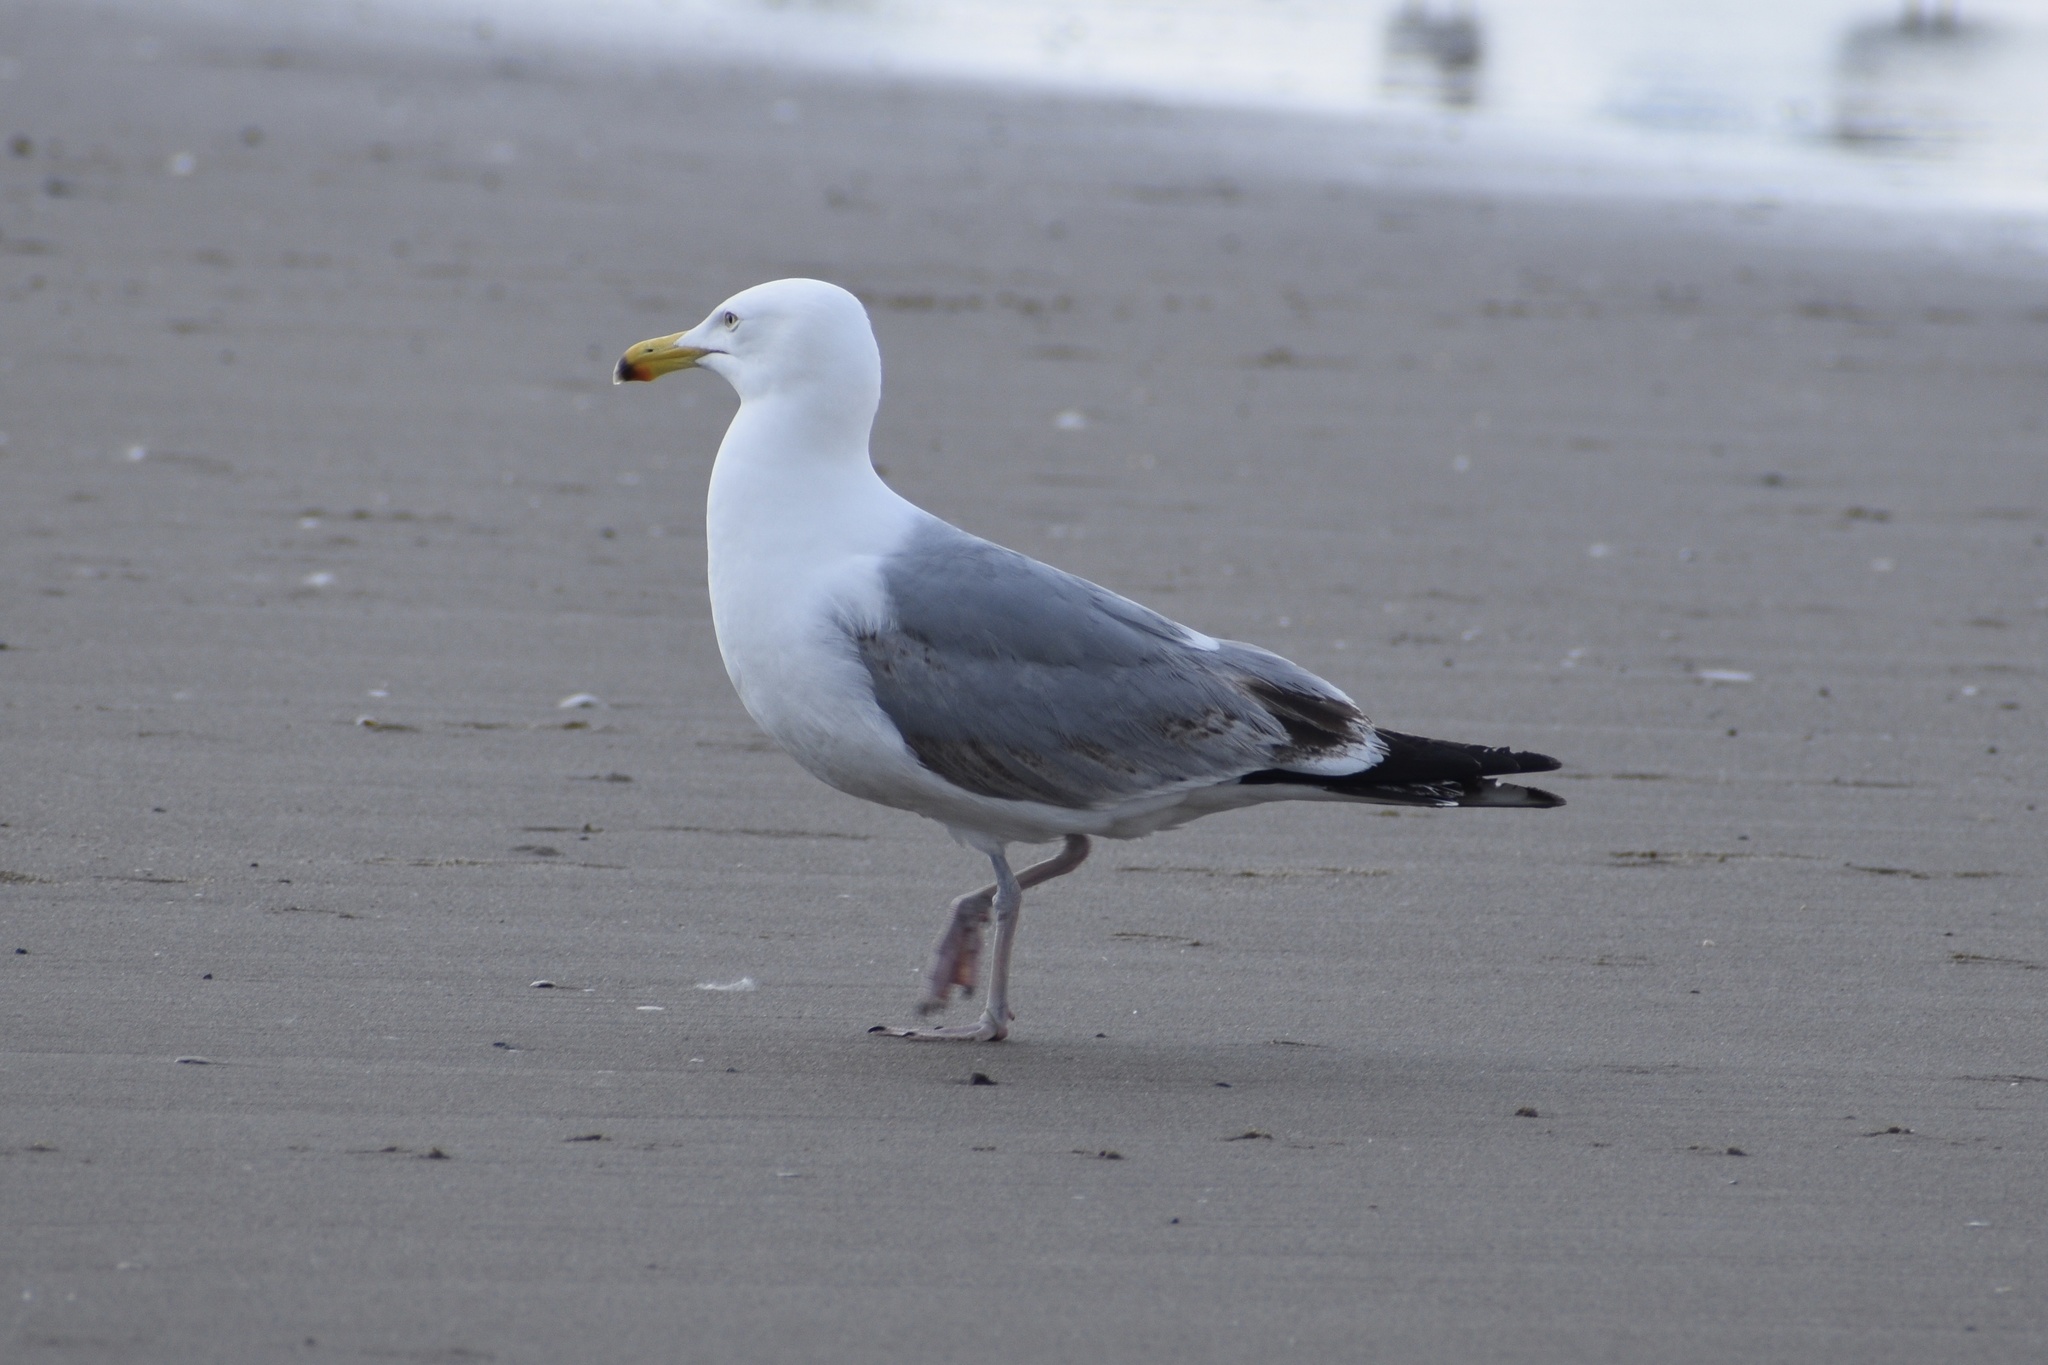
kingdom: Animalia
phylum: Chordata
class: Aves
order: Charadriiformes
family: Laridae
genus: Larus
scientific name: Larus argentatus
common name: Herring gull
